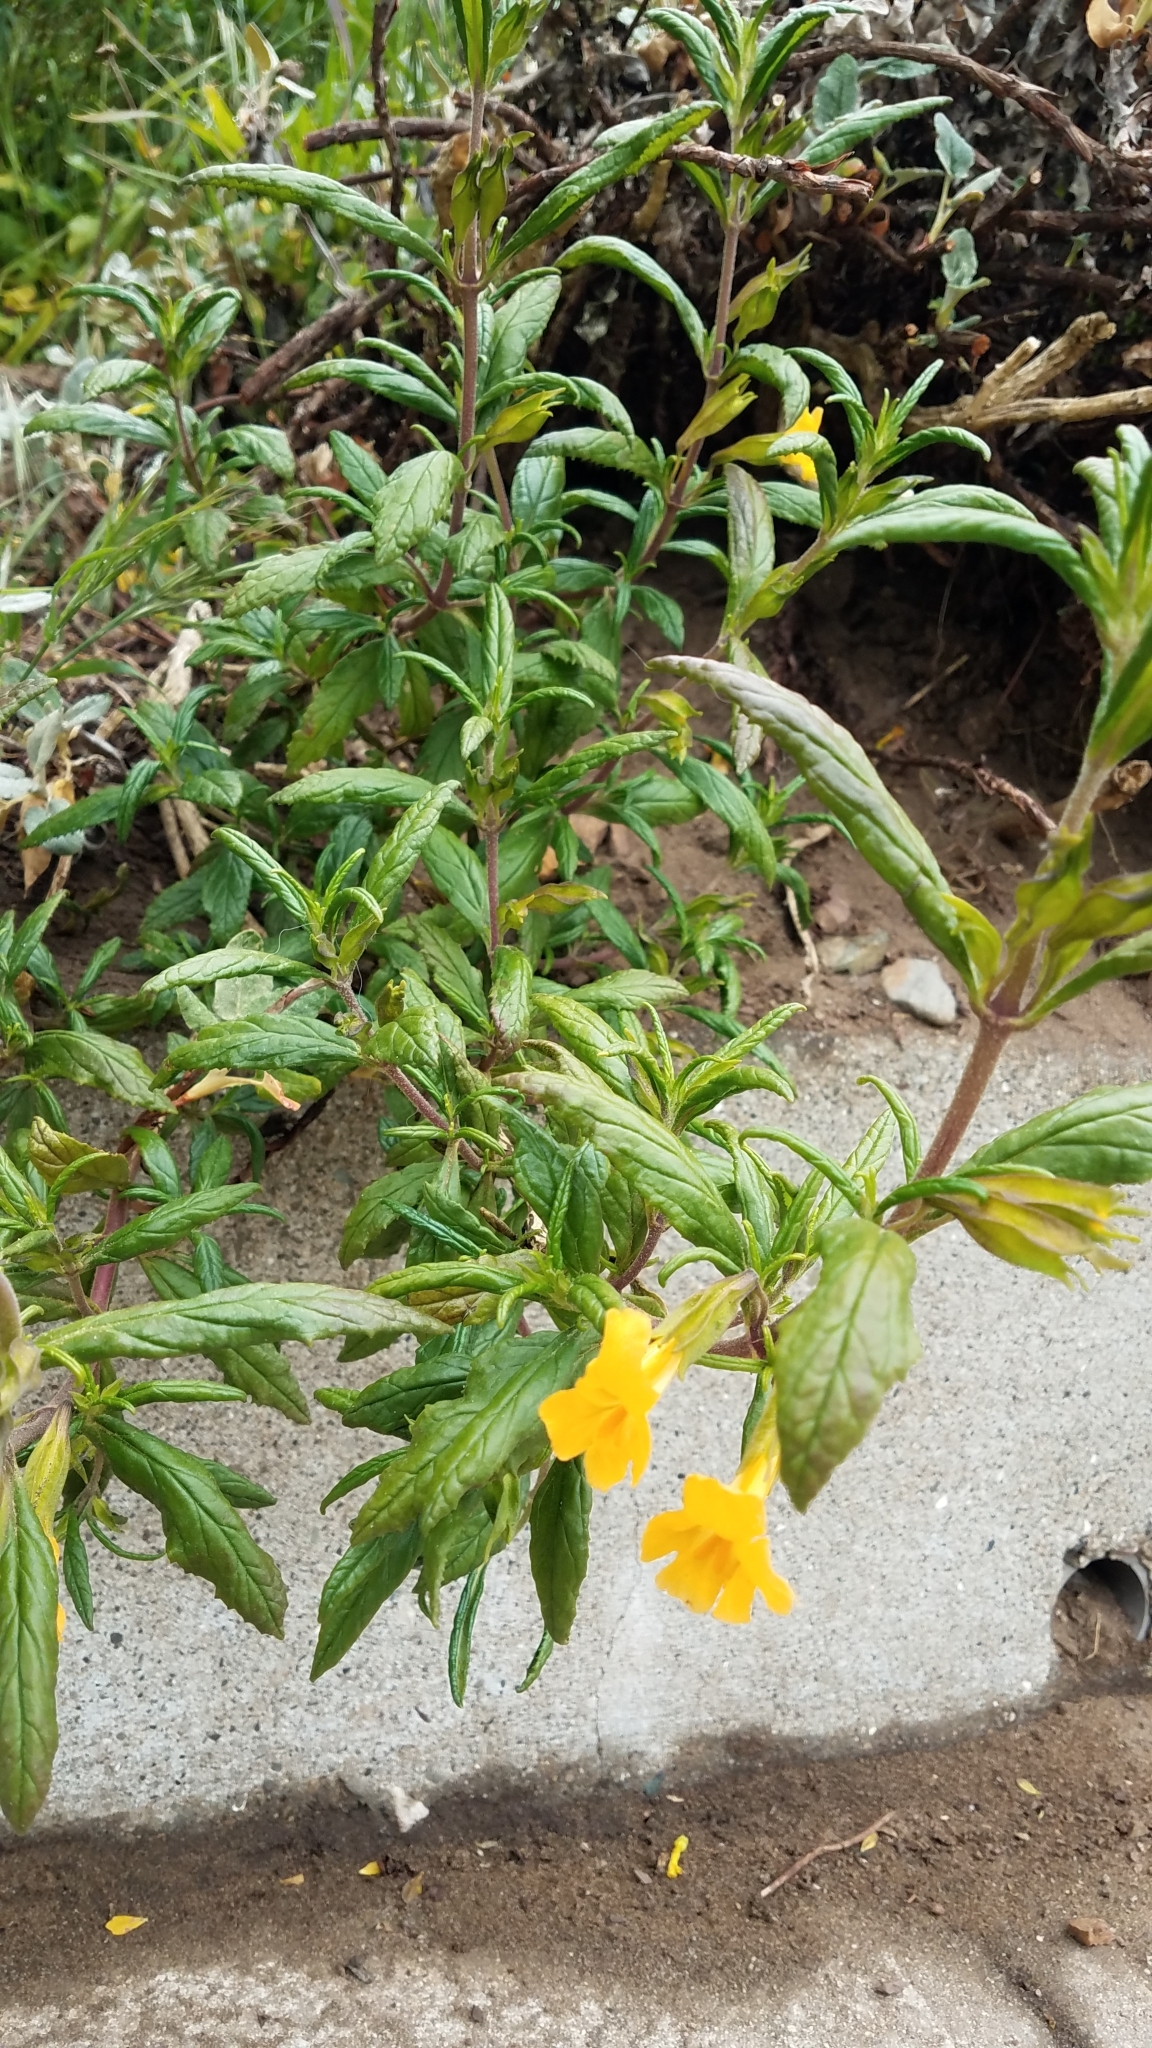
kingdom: Plantae
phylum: Tracheophyta
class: Magnoliopsida
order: Lamiales
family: Phrymaceae
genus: Diplacus
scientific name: Diplacus aurantiacus
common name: Bush monkey-flower
